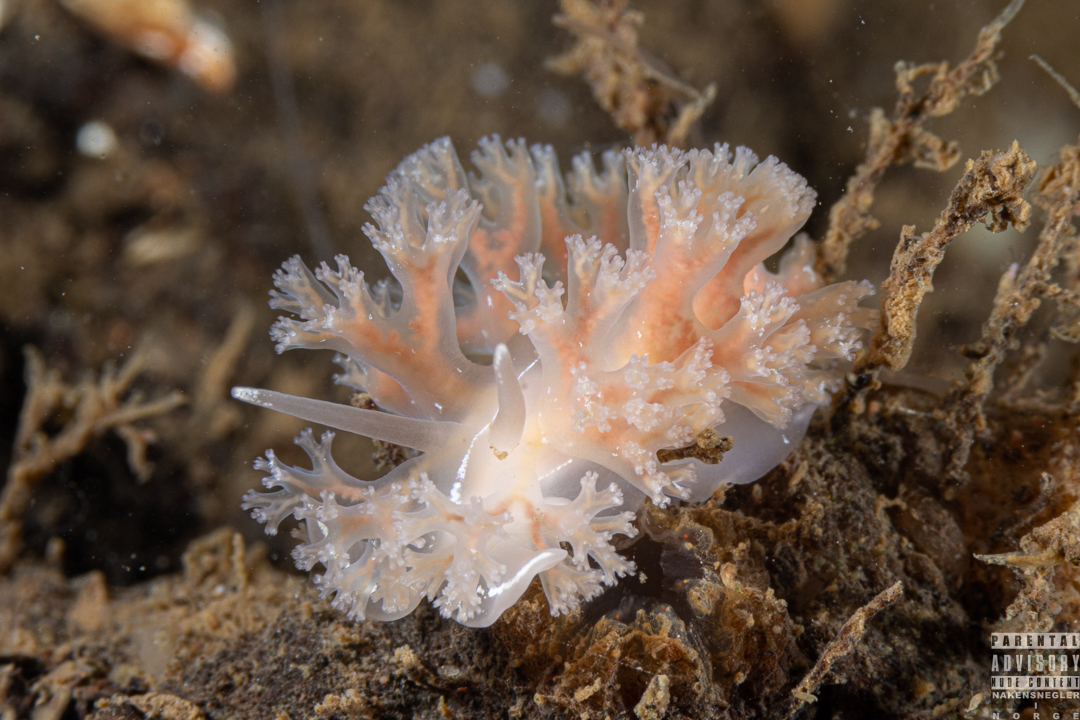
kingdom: Animalia
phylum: Mollusca
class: Gastropoda
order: Nudibranchia
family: Heroidae
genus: Hero
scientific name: Hero formosa
